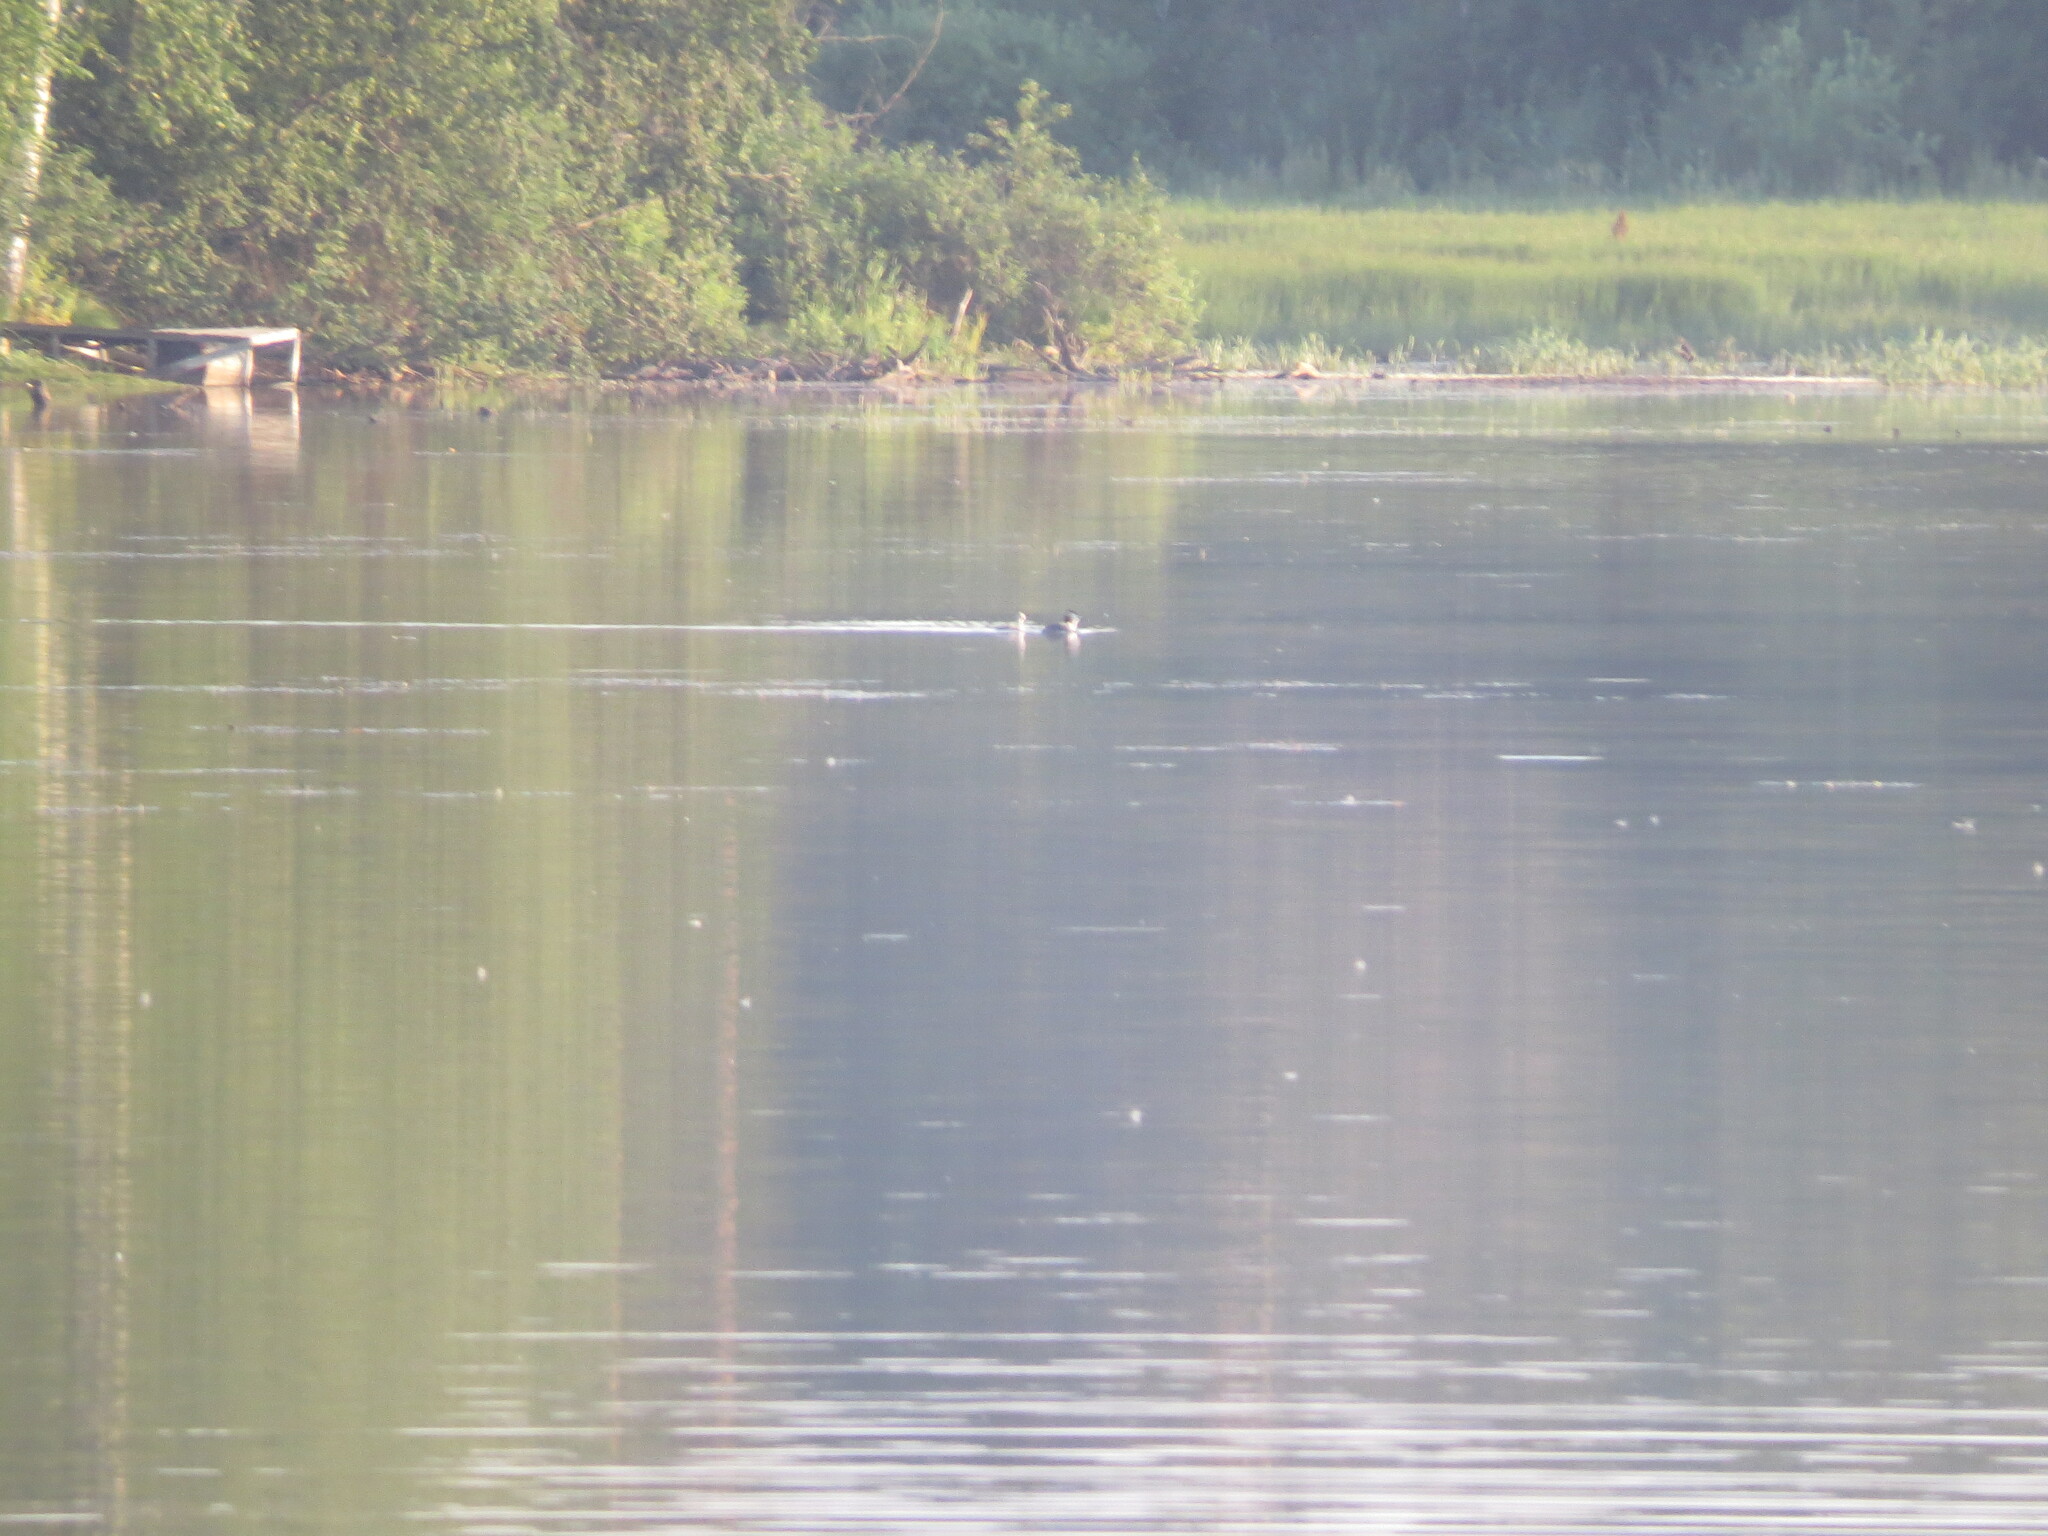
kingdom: Animalia
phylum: Chordata
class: Aves
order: Podicipediformes
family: Podicipedidae
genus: Podiceps
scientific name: Podiceps cristatus
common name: Great crested grebe
